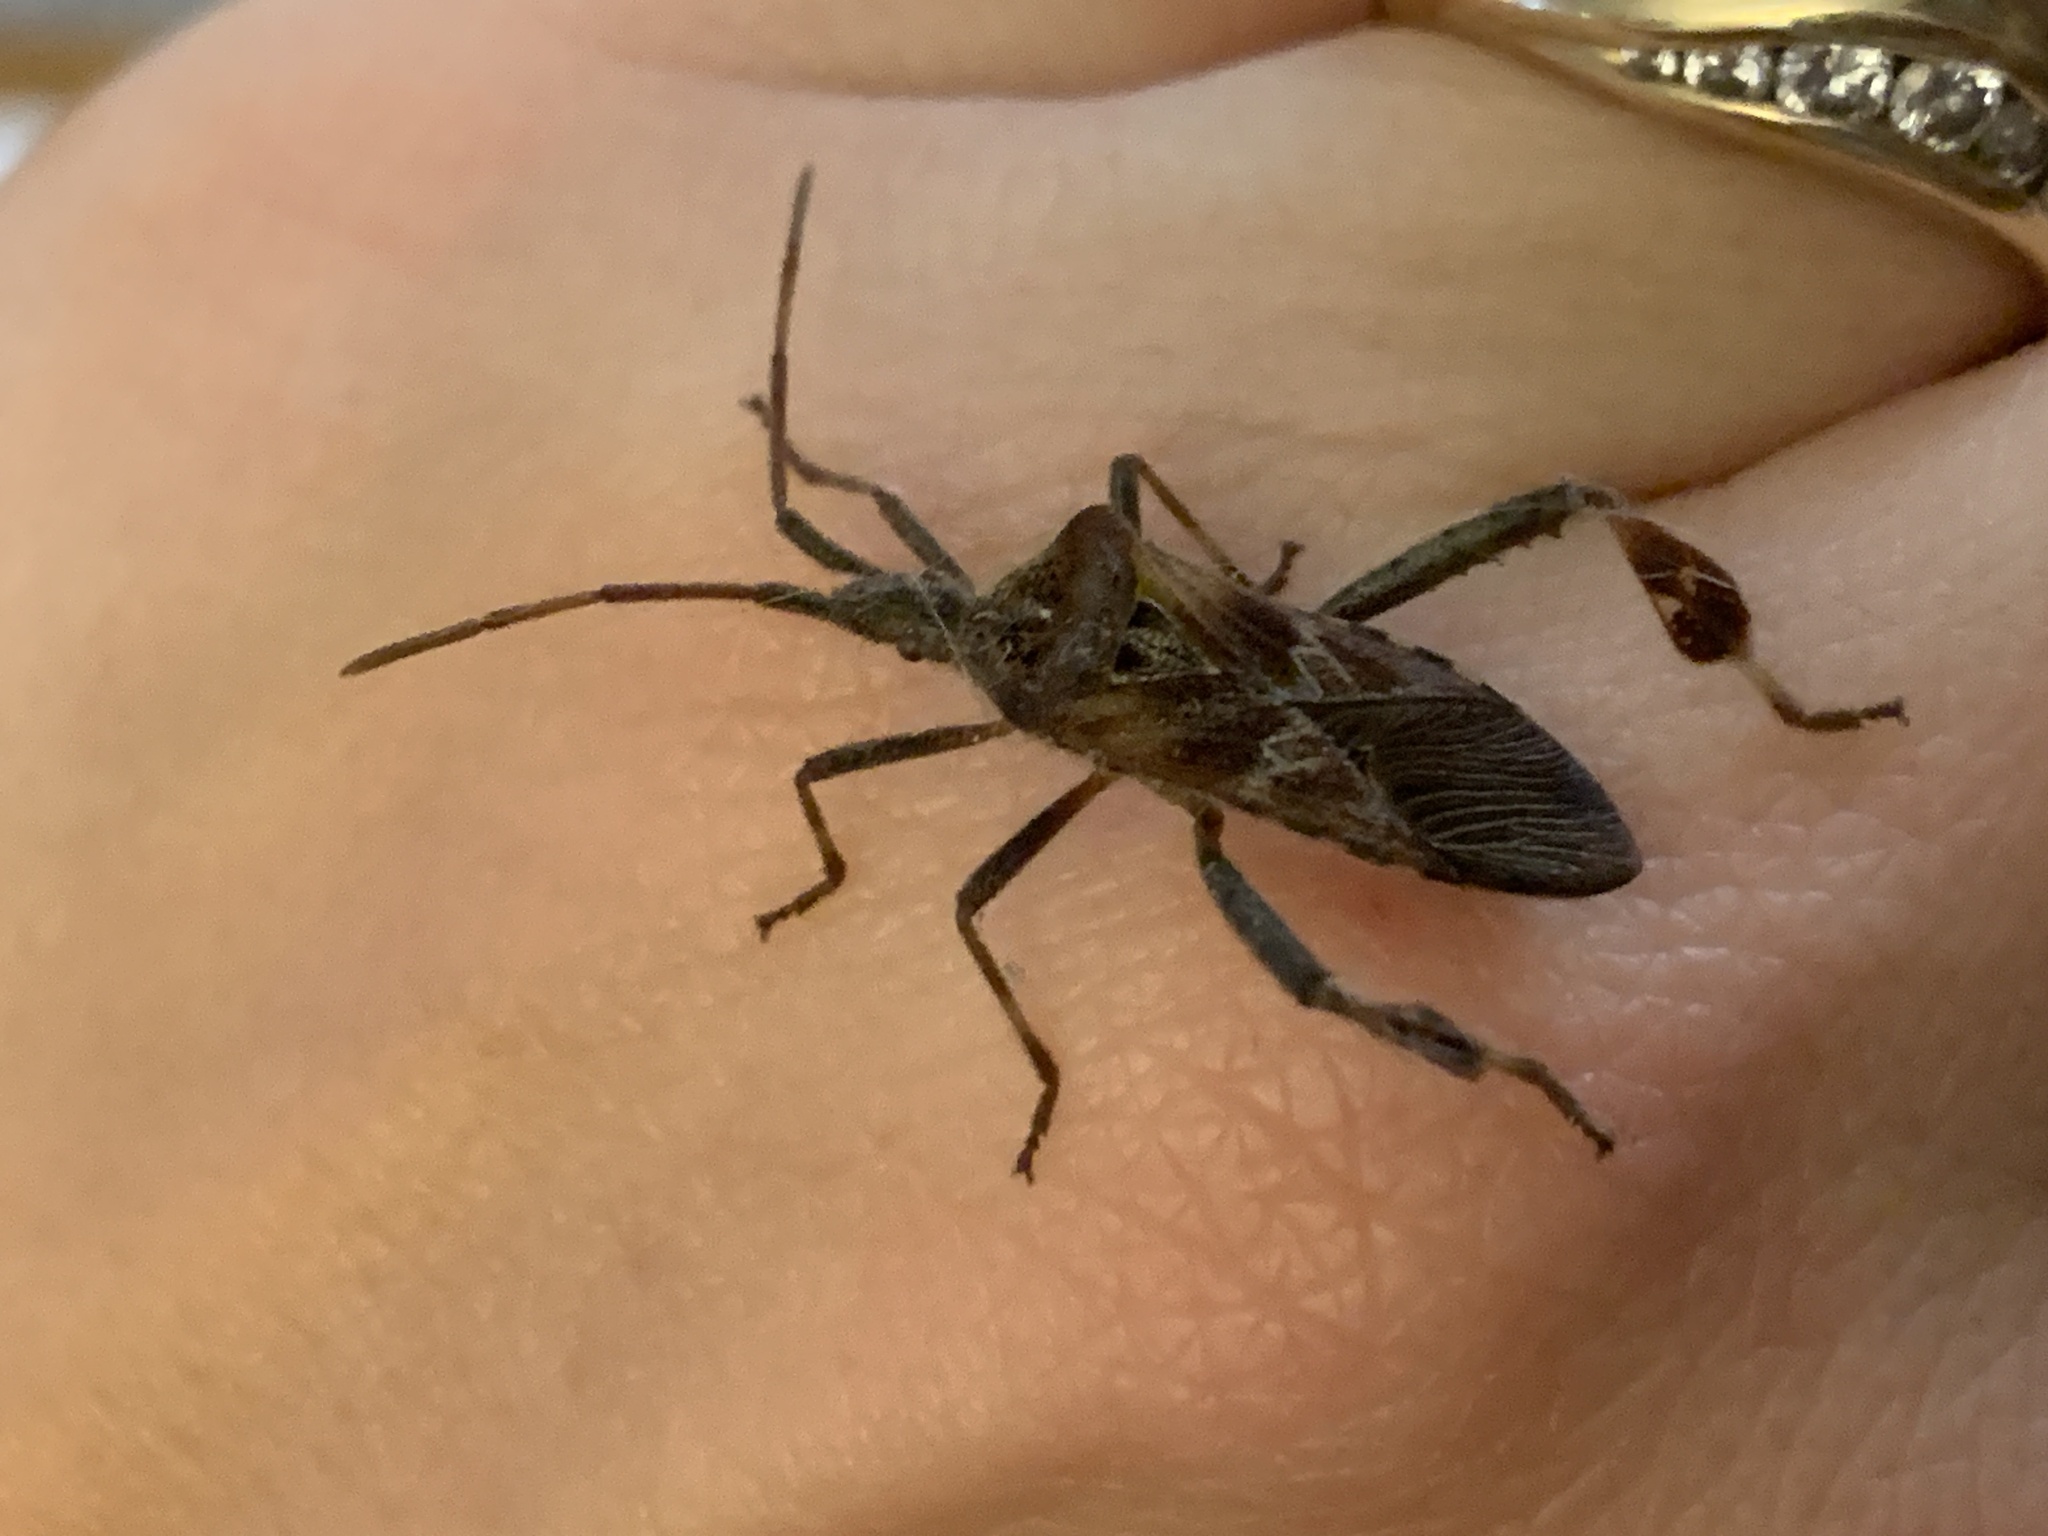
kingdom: Animalia
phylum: Arthropoda
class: Insecta
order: Hemiptera
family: Coreidae
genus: Leptoglossus
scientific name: Leptoglossus occidentalis
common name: Western conifer-seed bug
